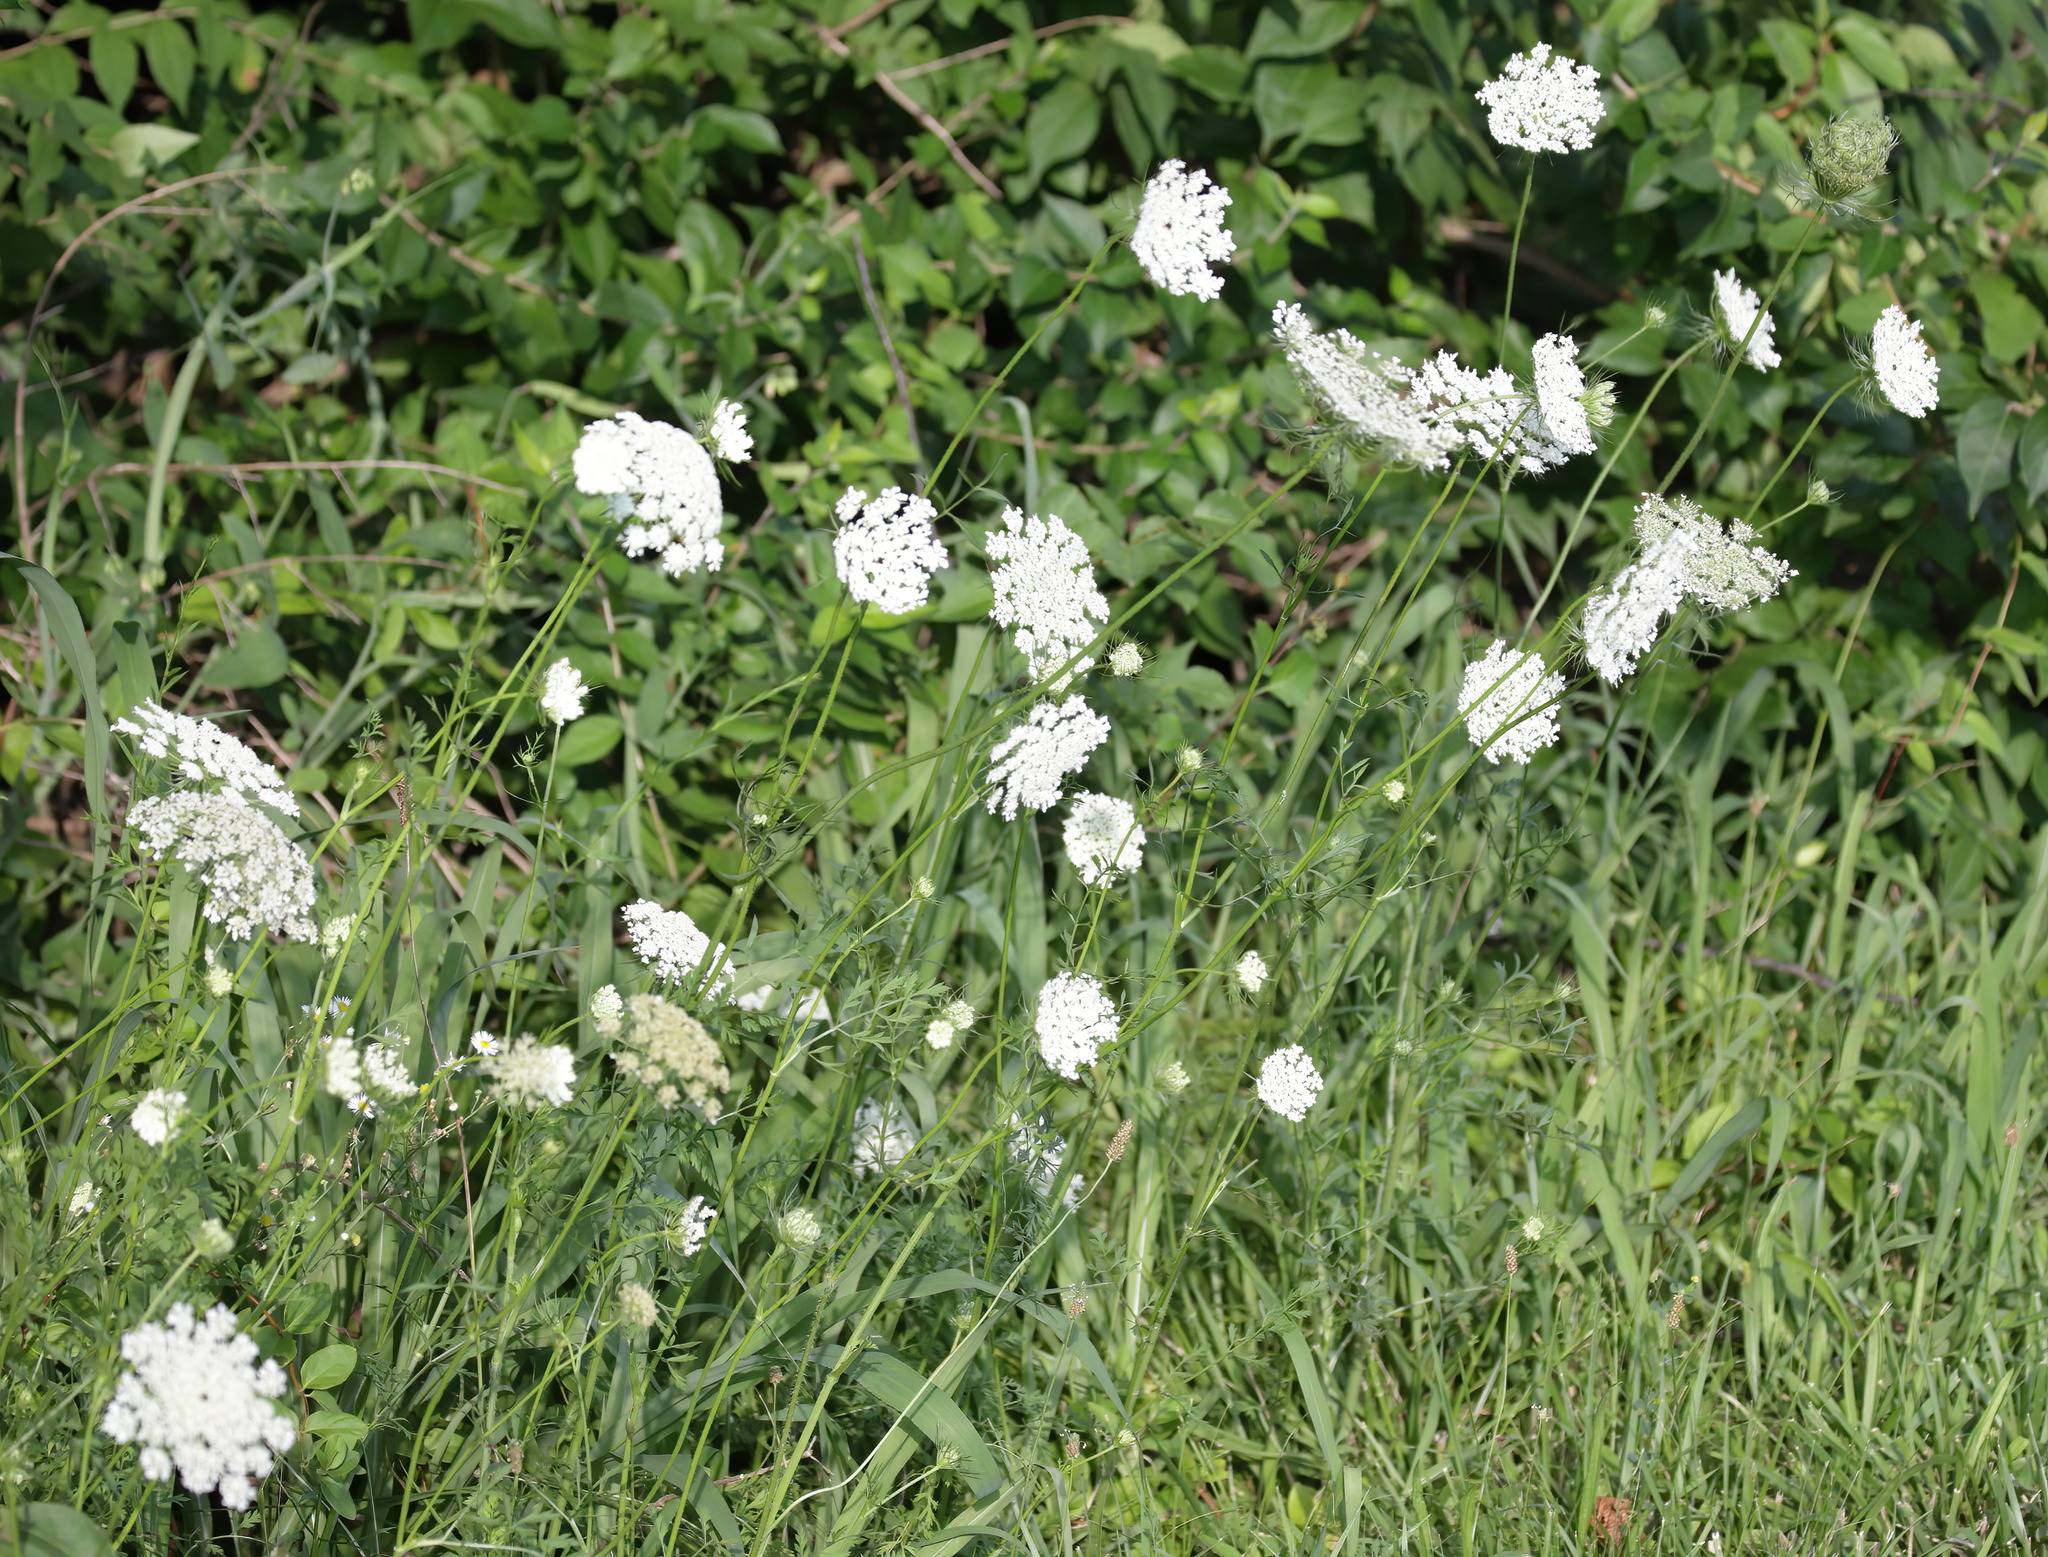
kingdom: Plantae
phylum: Tracheophyta
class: Magnoliopsida
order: Apiales
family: Apiaceae
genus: Daucus
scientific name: Daucus carota
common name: Wild carrot
